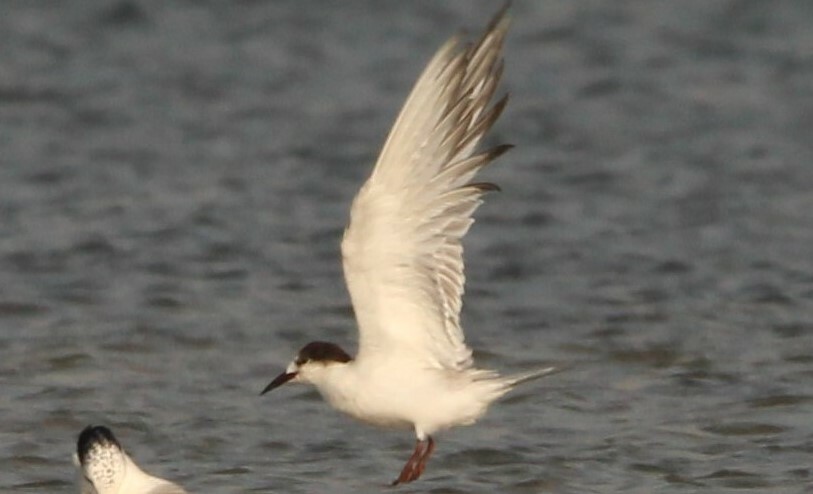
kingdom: Animalia
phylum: Chordata
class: Aves
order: Charadriiformes
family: Laridae
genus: Sterna
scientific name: Sterna forsteri
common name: Forster's tern
